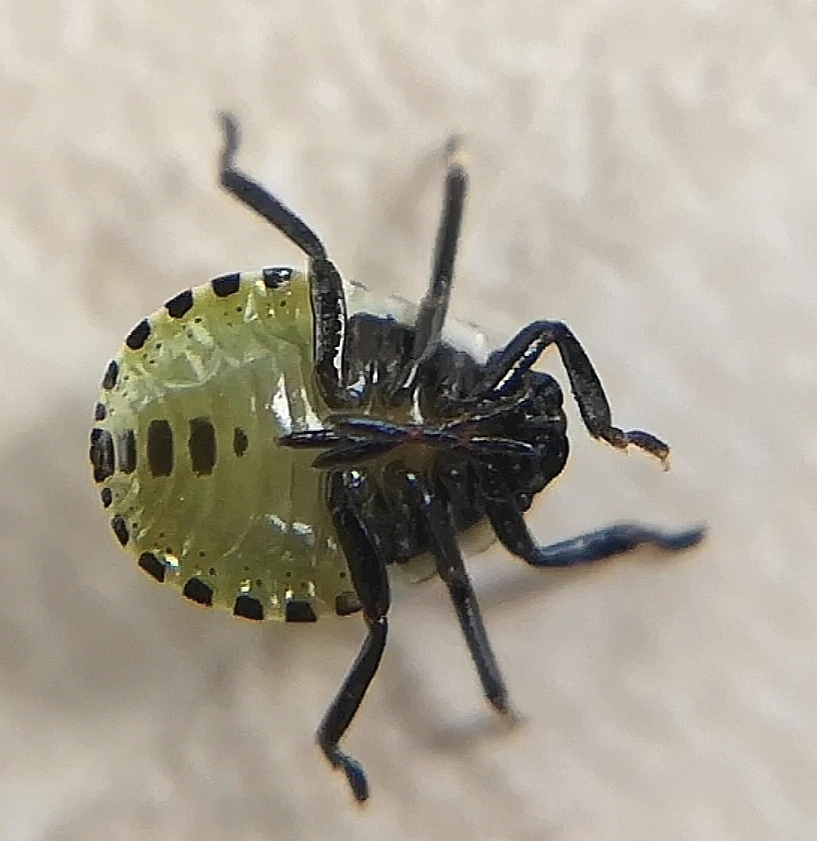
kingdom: Animalia
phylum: Arthropoda
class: Insecta
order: Hemiptera
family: Pentatomidae
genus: Palomena
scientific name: Palomena prasina
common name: Green shieldbug
